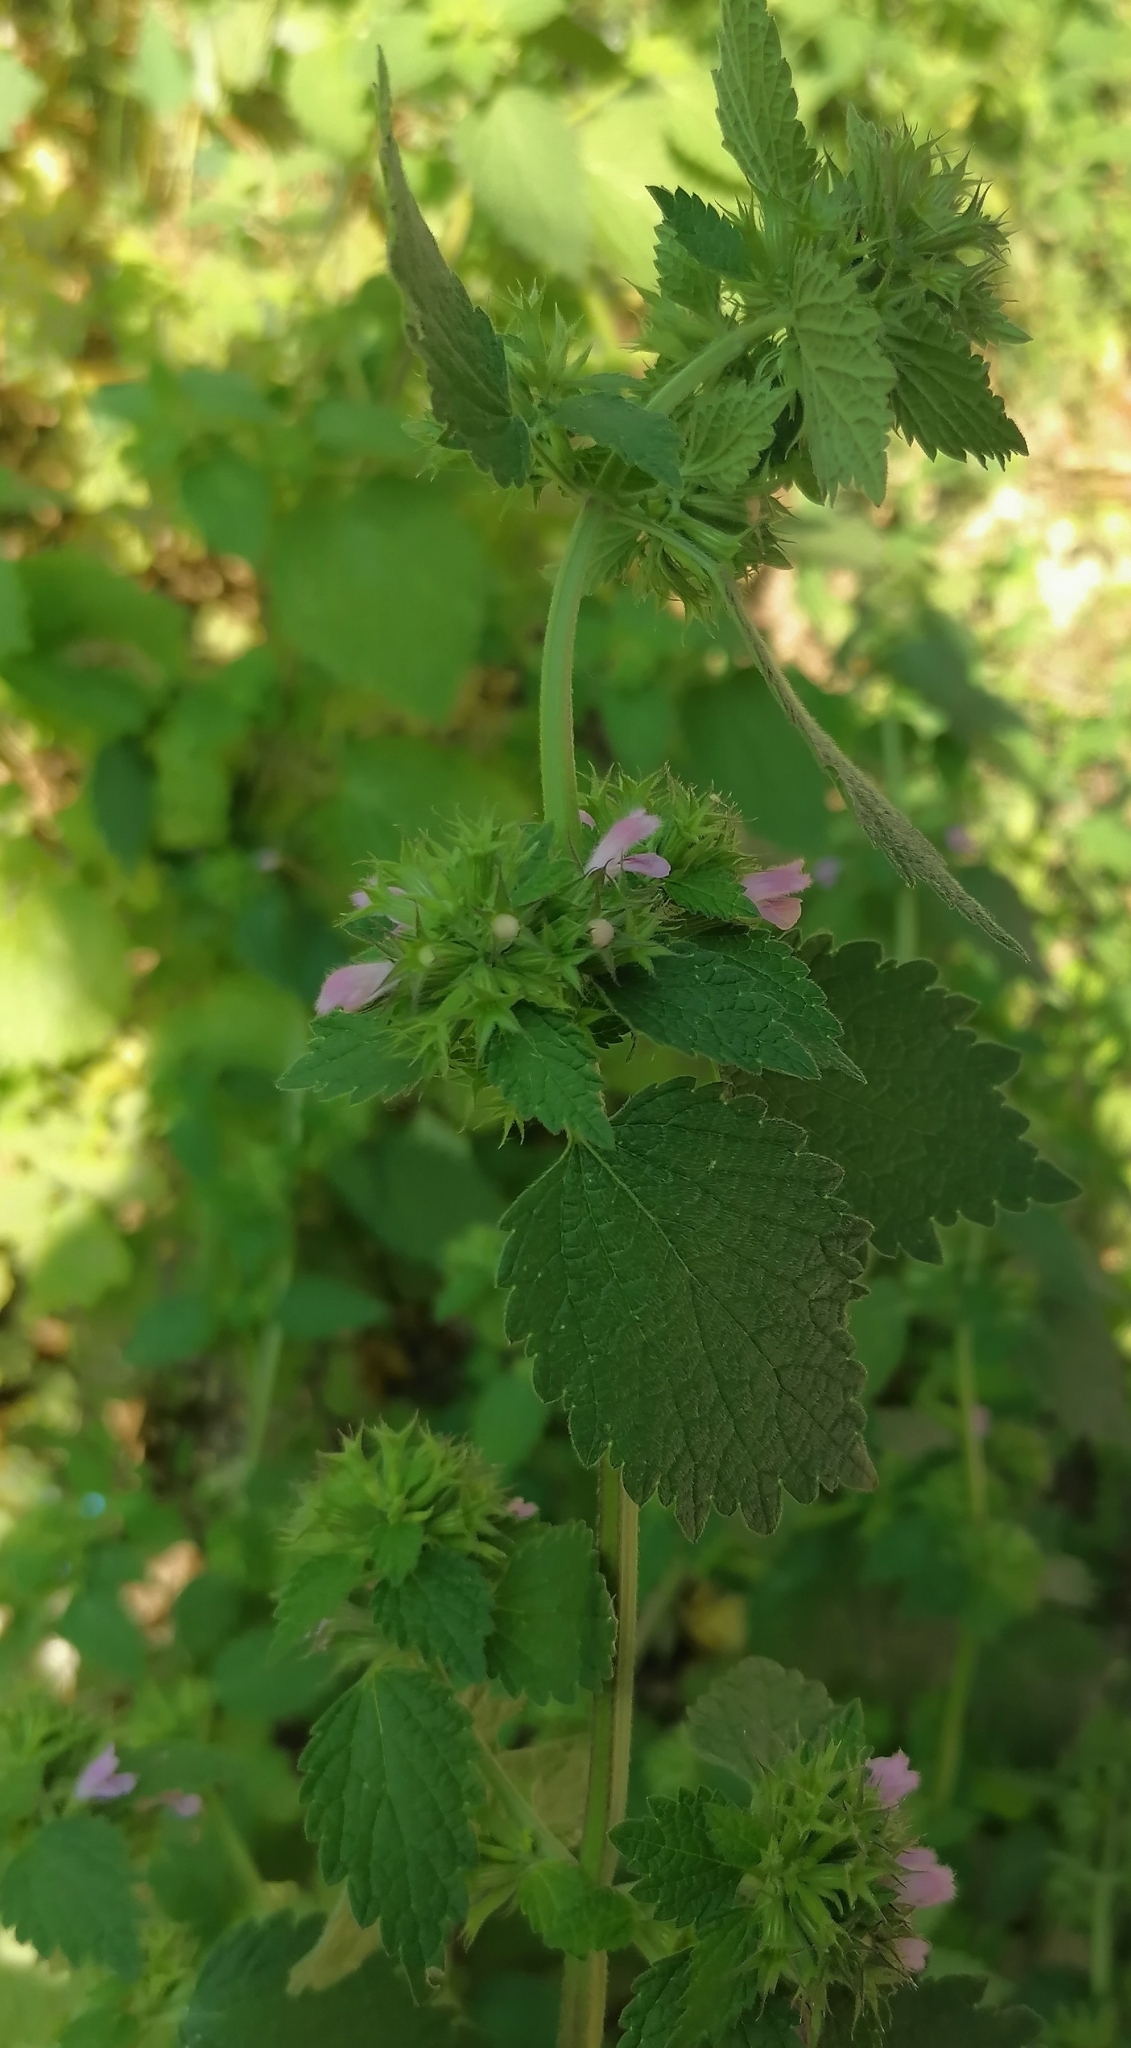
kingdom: Plantae
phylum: Tracheophyta
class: Magnoliopsida
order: Lamiales
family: Lamiaceae
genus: Ballota
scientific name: Ballota nigra
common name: Black horehound
